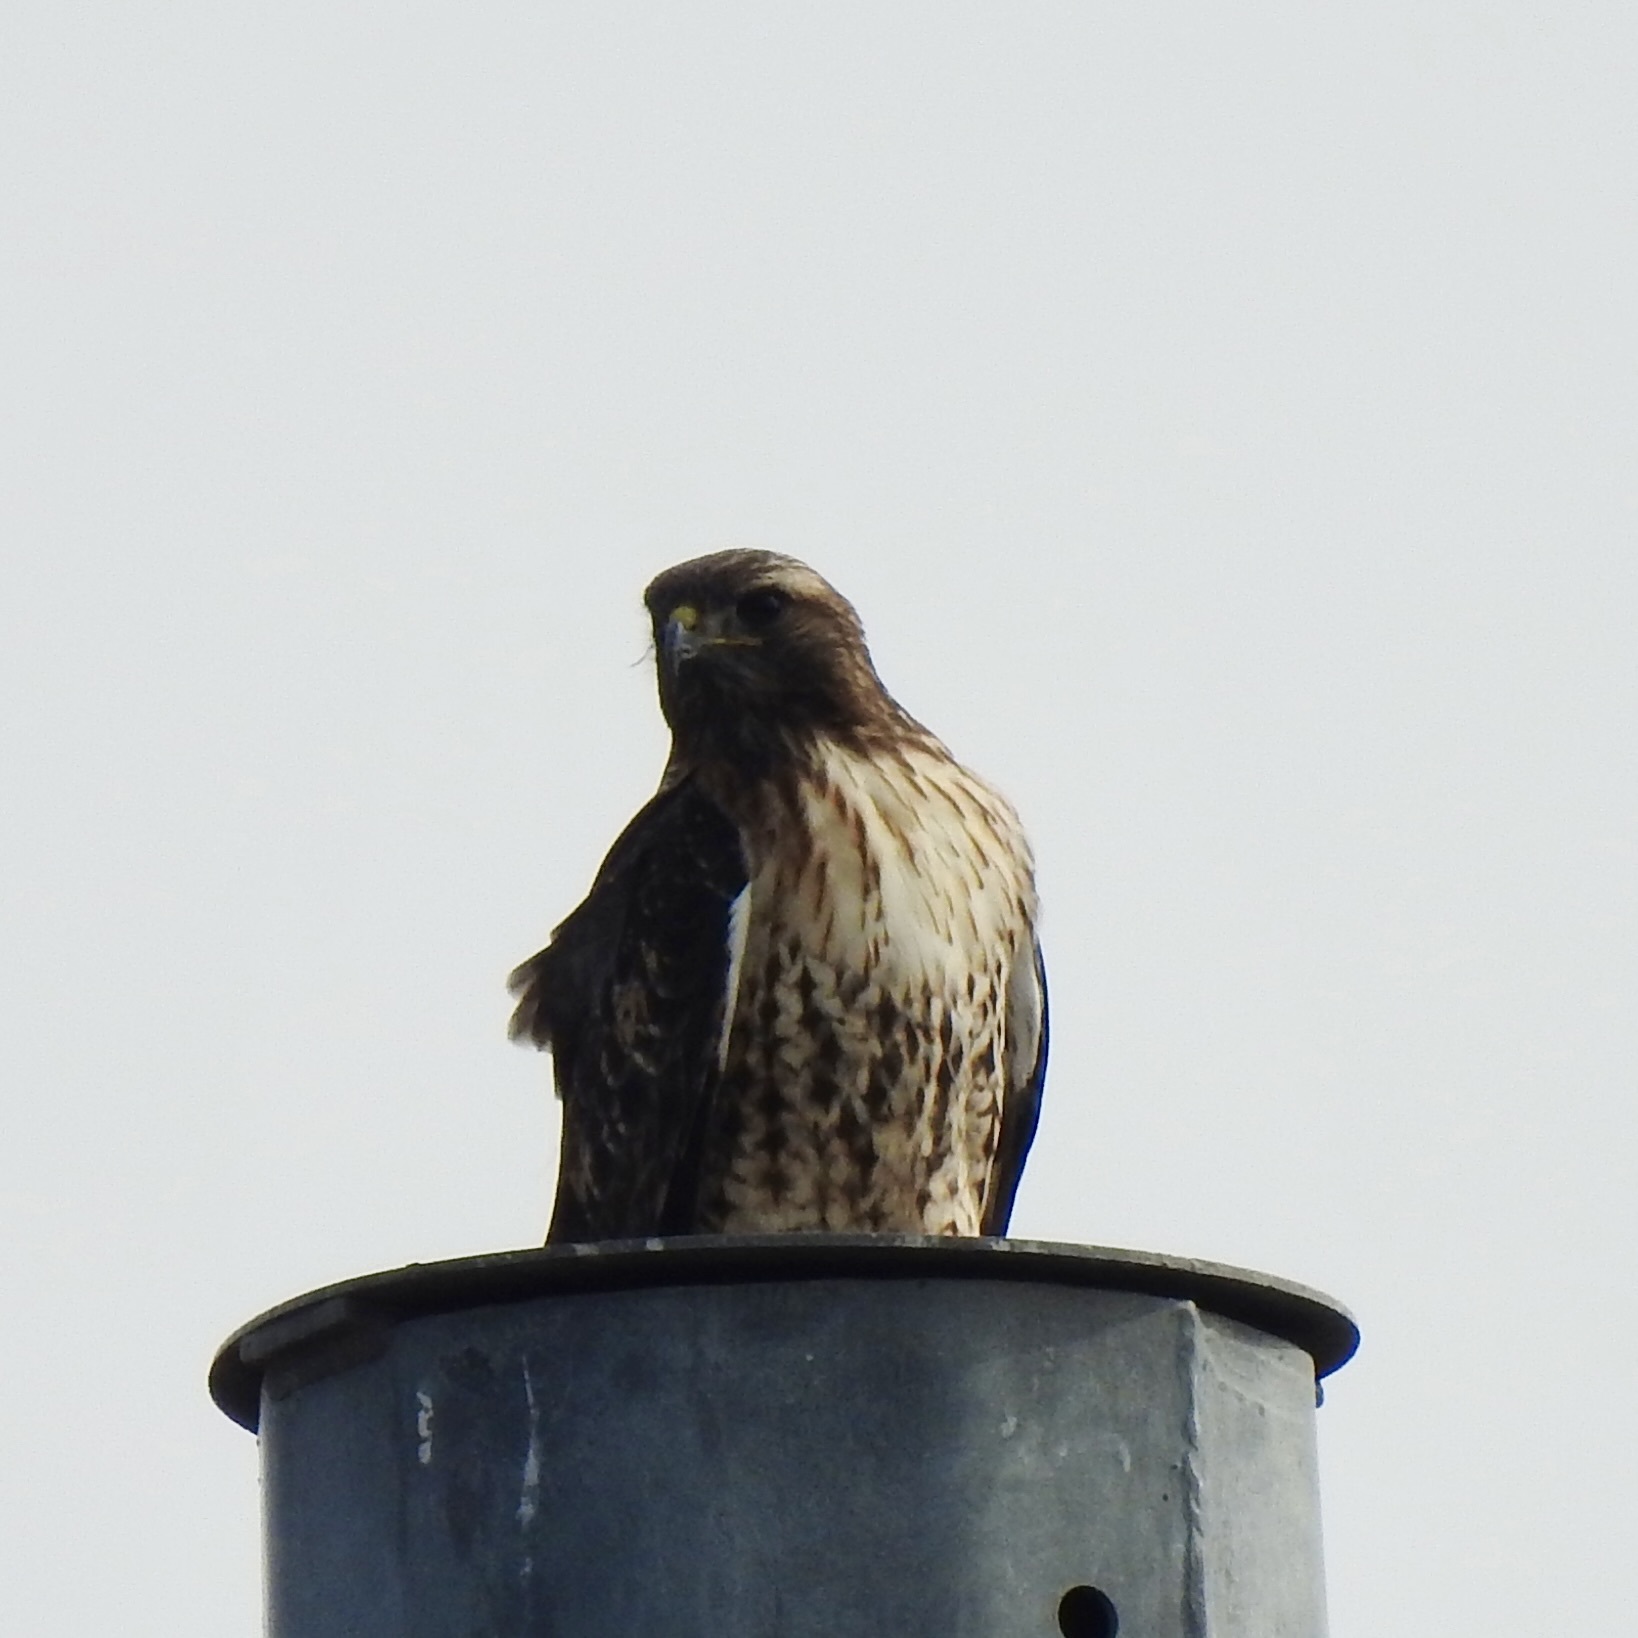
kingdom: Animalia
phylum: Chordata
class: Aves
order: Accipitriformes
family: Accipitridae
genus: Buteo
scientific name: Buteo jamaicensis
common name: Red-tailed hawk
